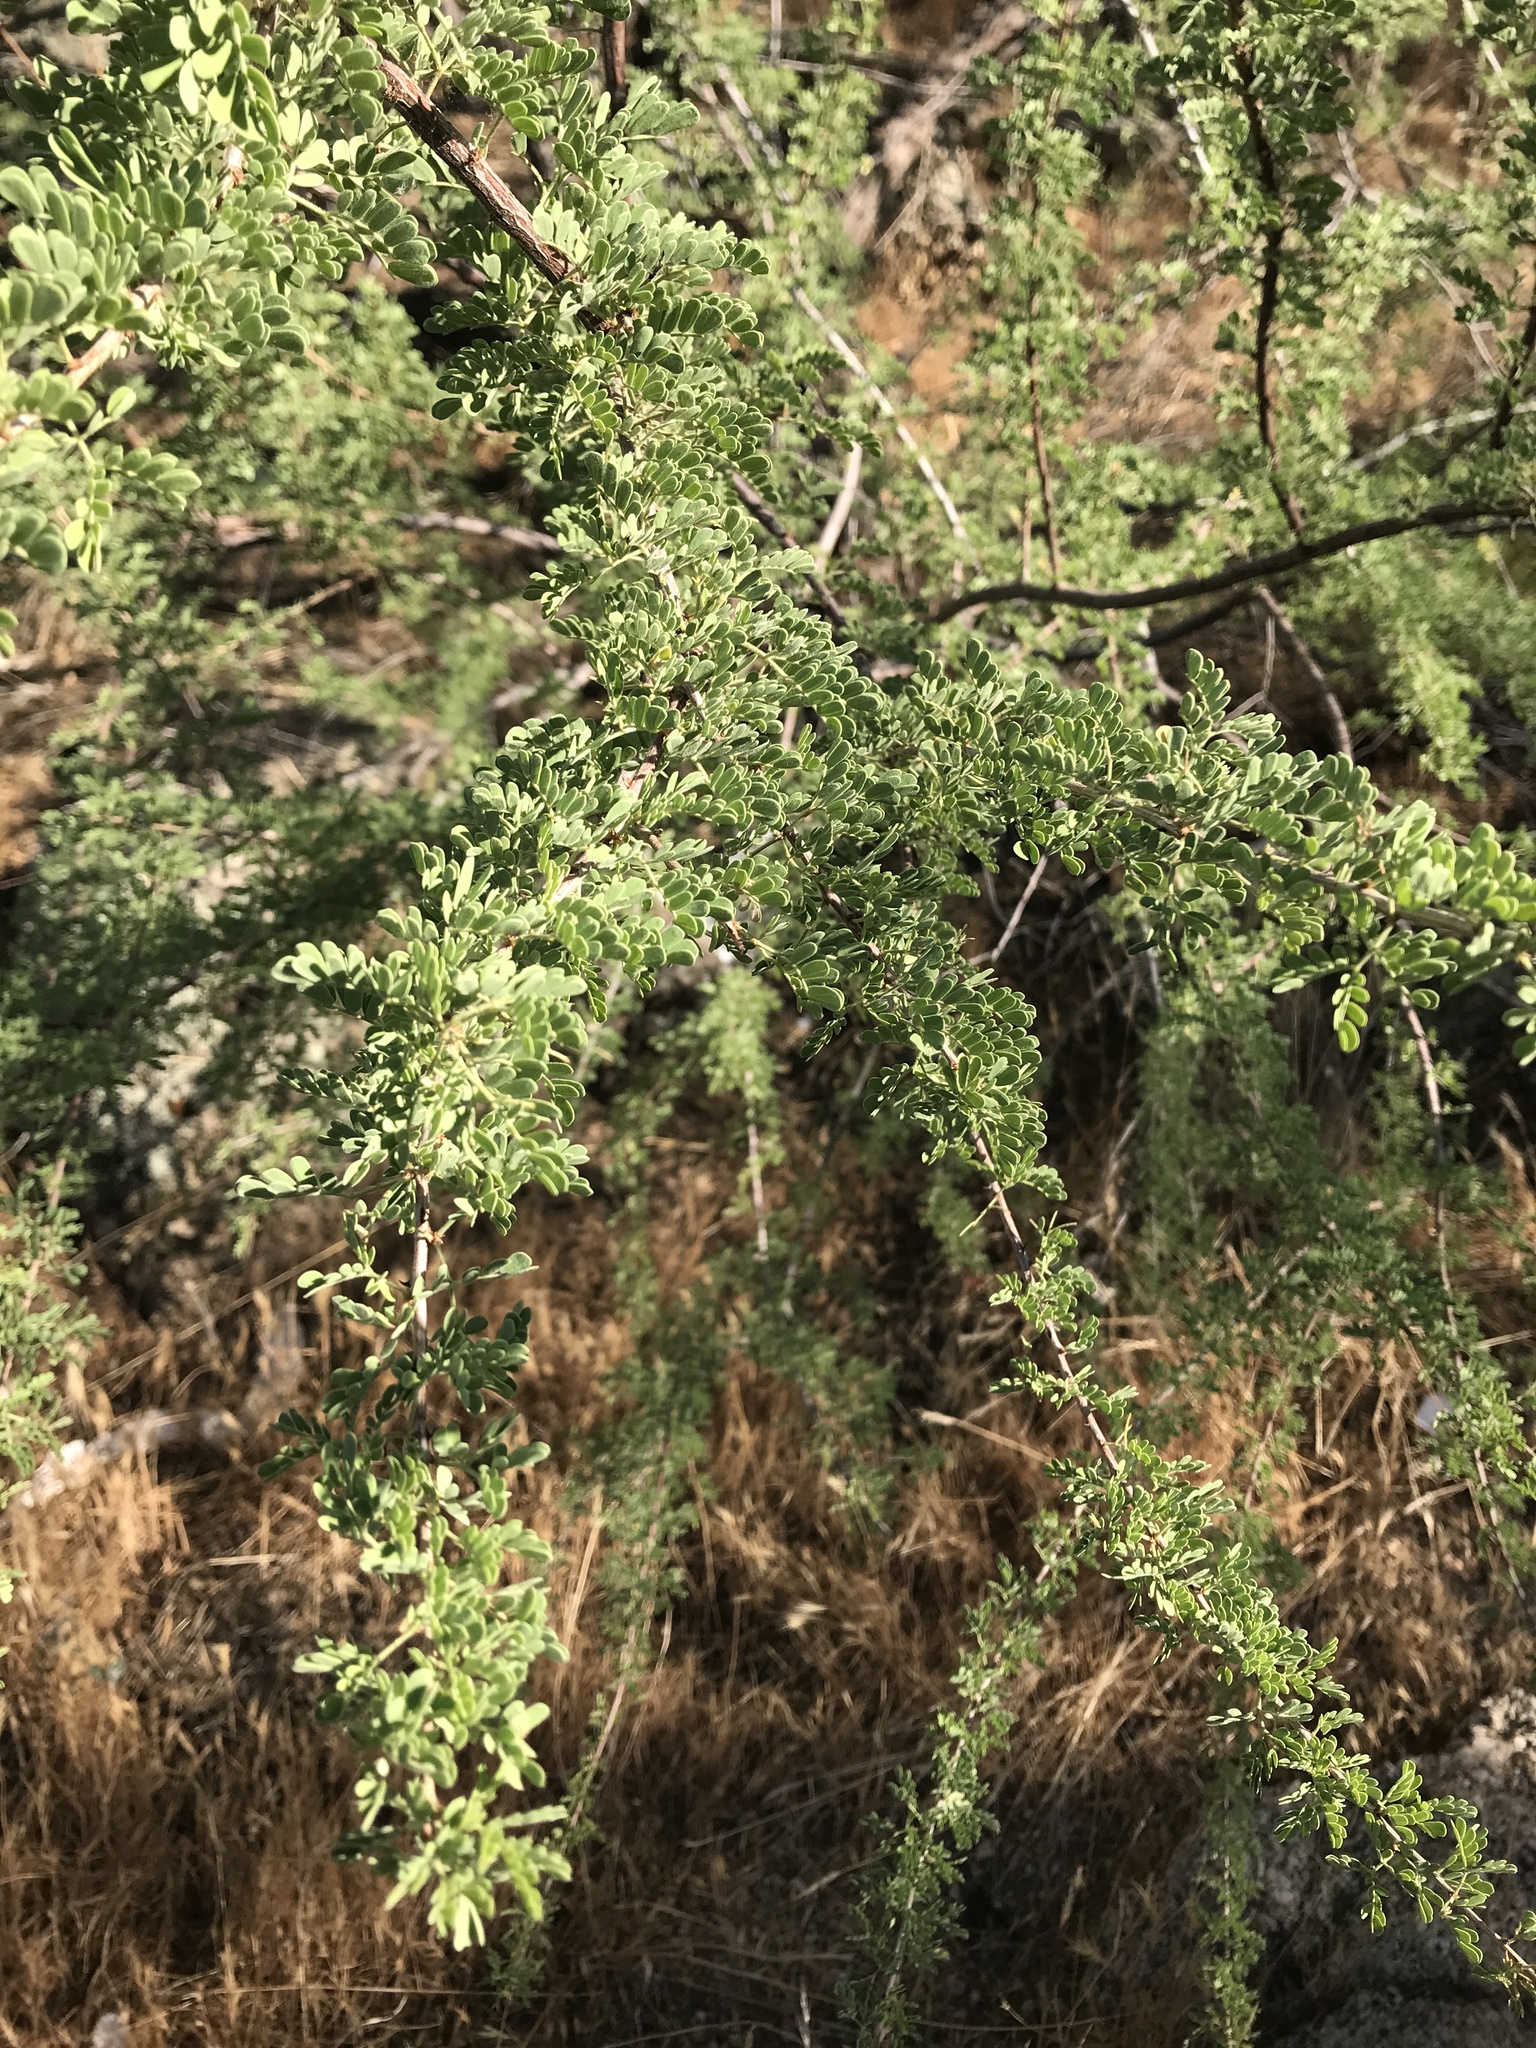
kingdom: Plantae
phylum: Tracheophyta
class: Magnoliopsida
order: Fabales
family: Fabaceae
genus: Senegalia
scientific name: Senegalia greggii
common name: Texas-mimosa
